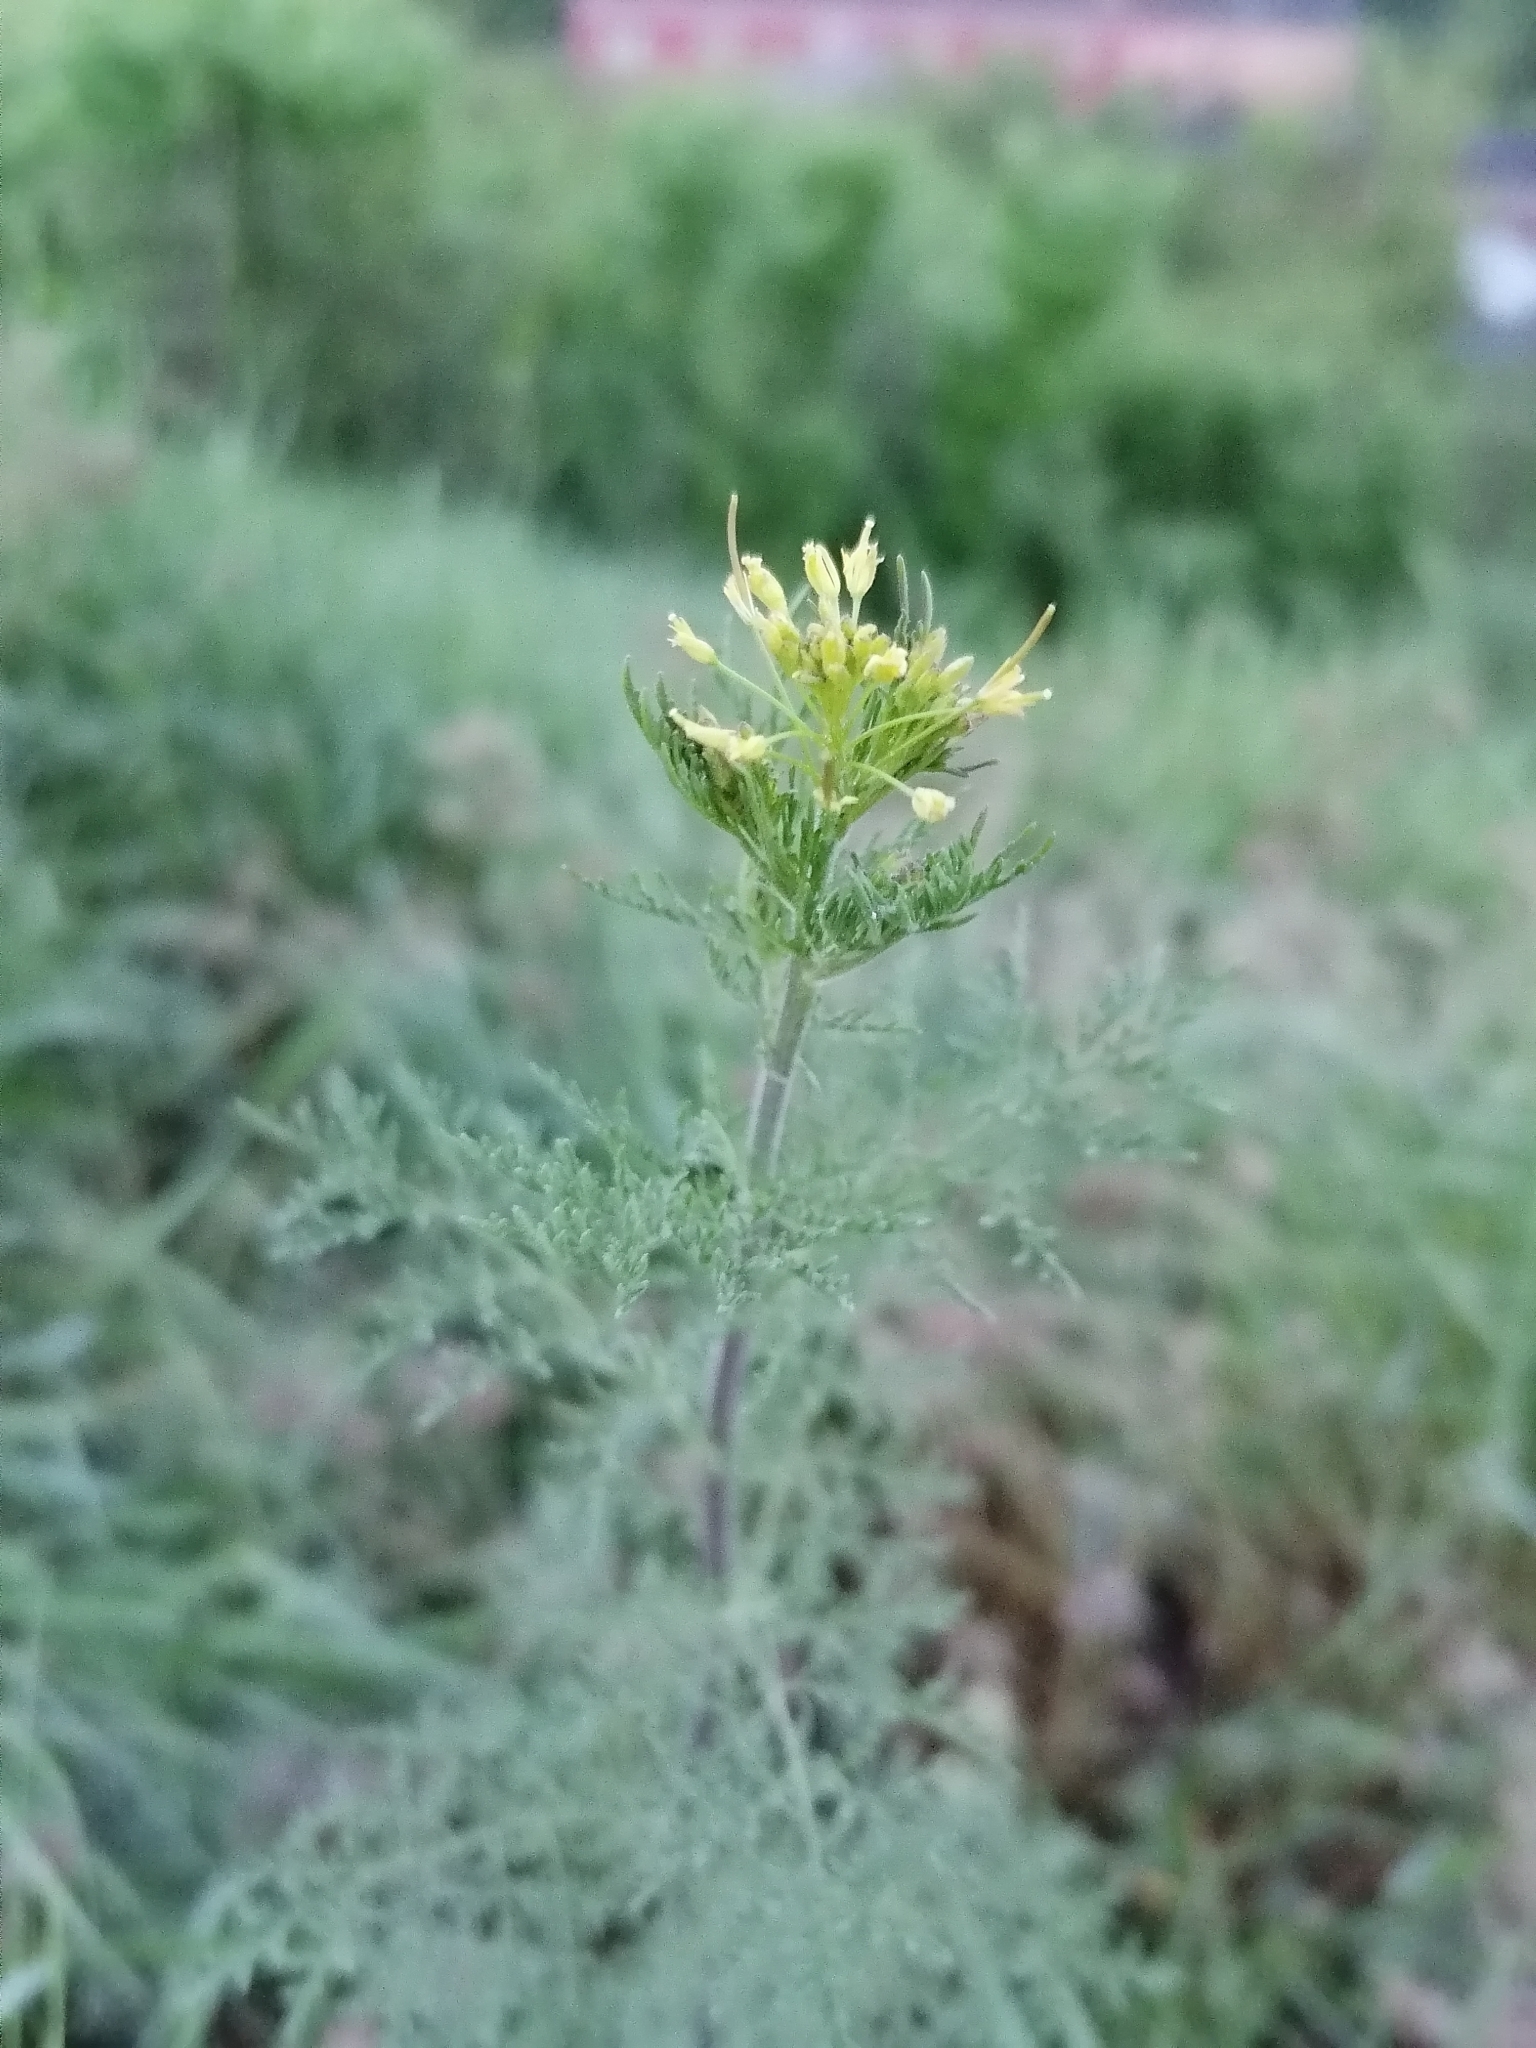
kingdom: Plantae
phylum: Tracheophyta
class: Magnoliopsida
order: Brassicales
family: Brassicaceae
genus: Descurainia
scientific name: Descurainia sophia
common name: Flixweed
